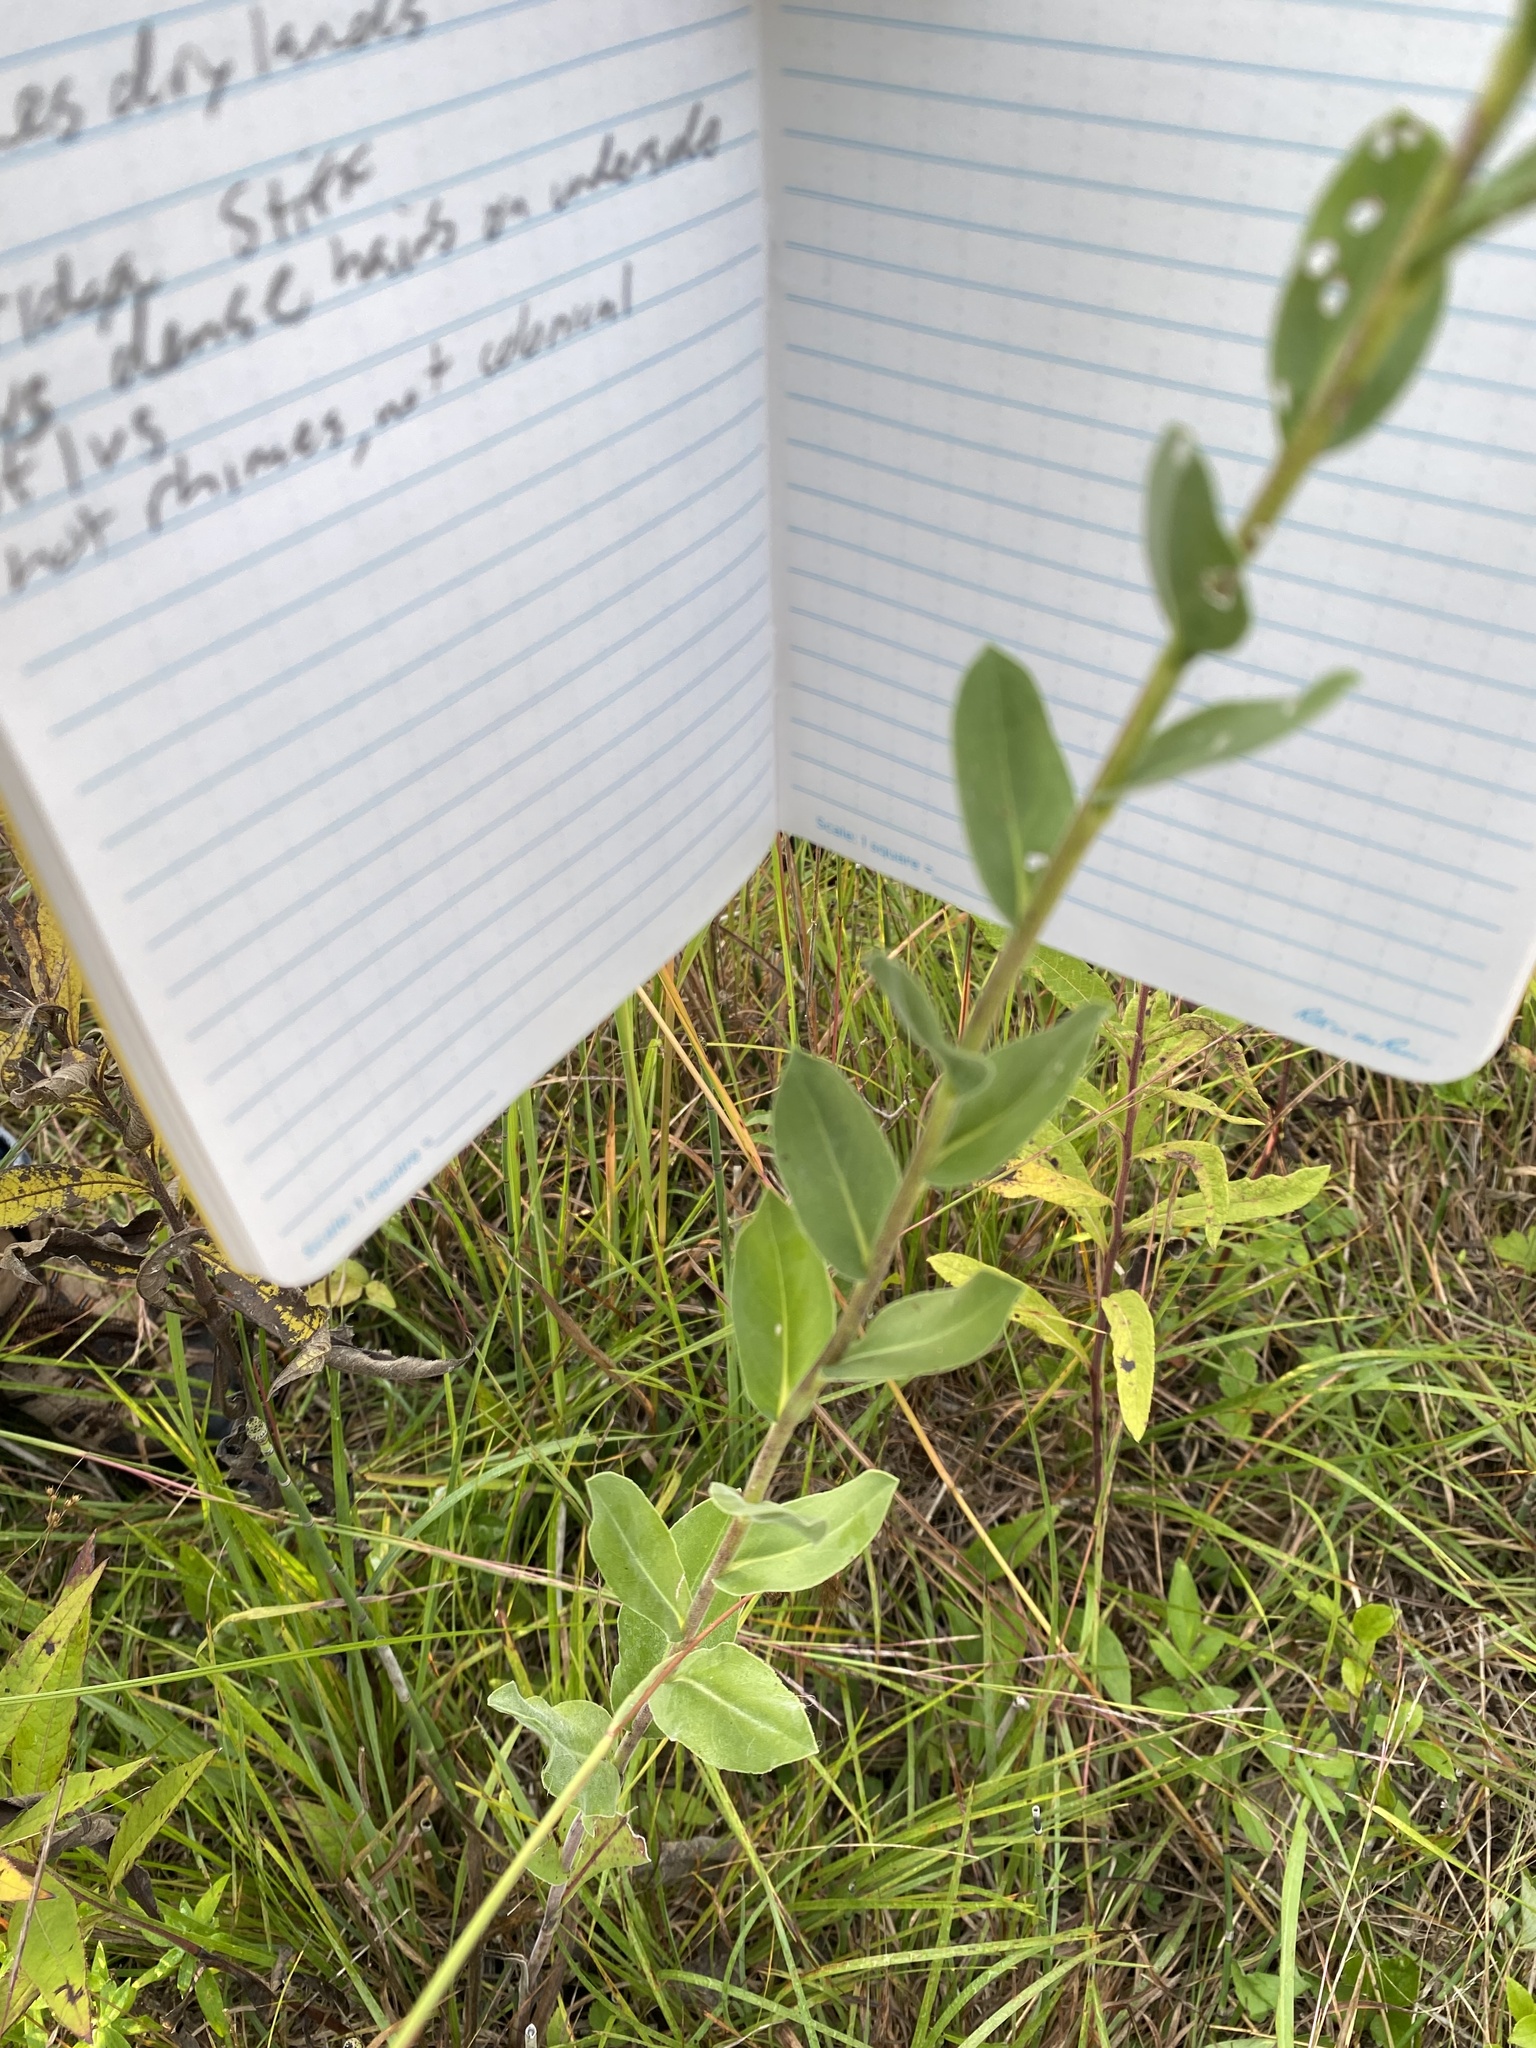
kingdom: Plantae
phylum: Tracheophyta
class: Magnoliopsida
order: Asterales
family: Asteraceae
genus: Solidago
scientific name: Solidago rigida
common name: Rigid goldenrod
